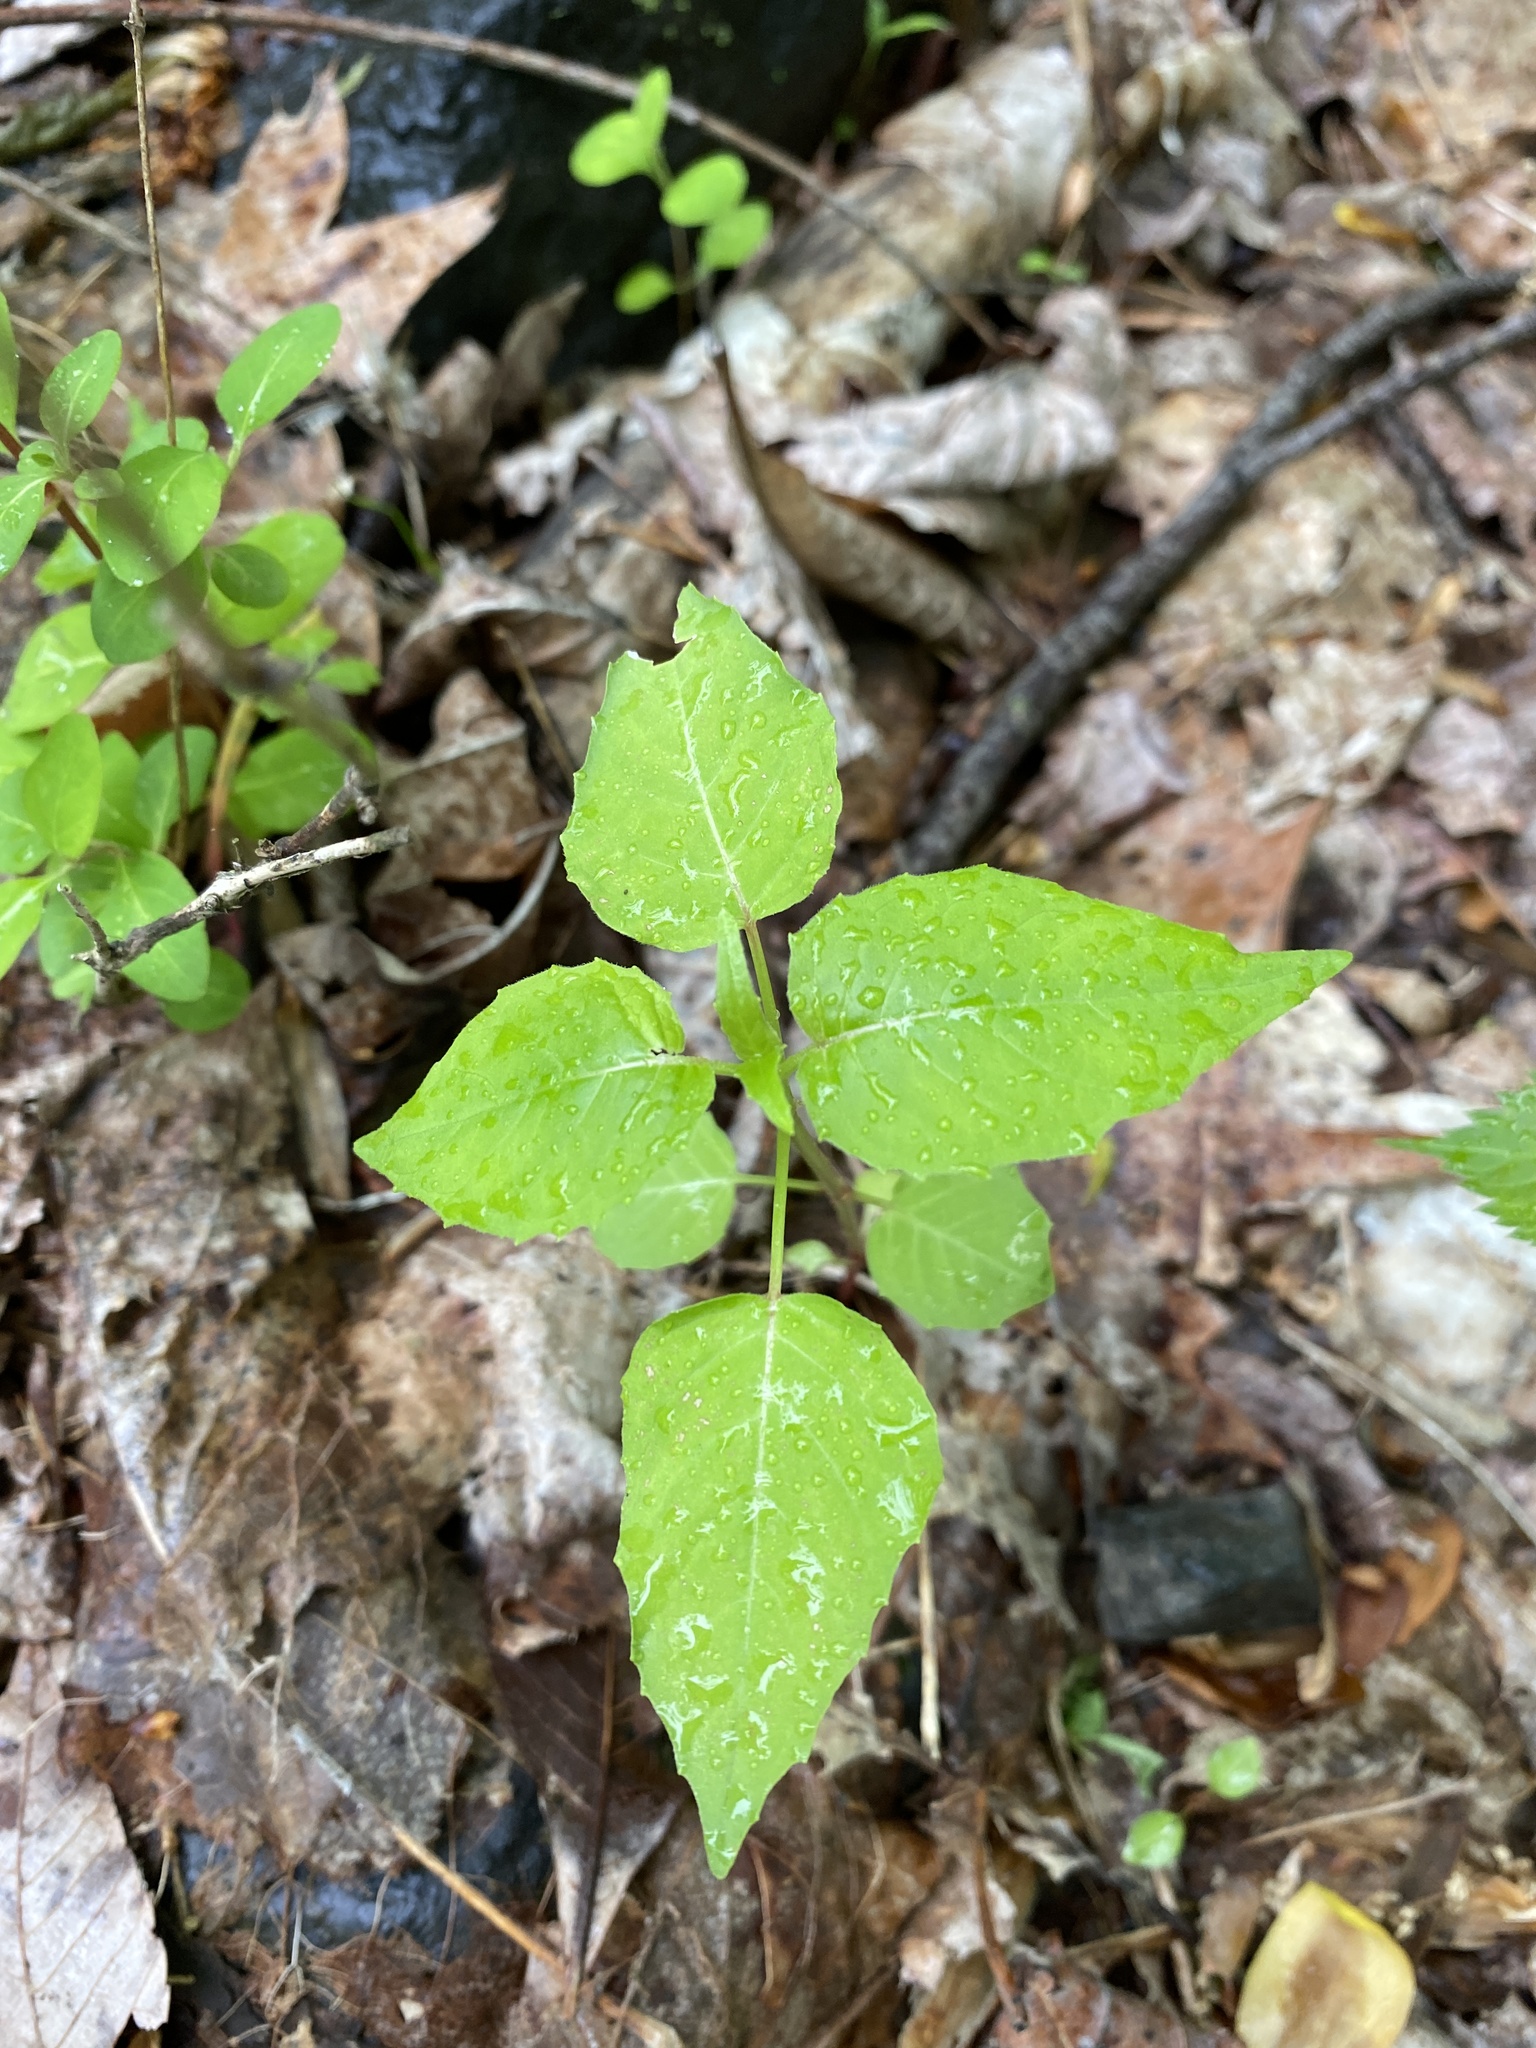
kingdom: Plantae
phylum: Tracheophyta
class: Magnoliopsida
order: Myrtales
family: Onagraceae
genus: Circaea
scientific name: Circaea canadensis
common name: Broad-leaved enchanter's nightshade
